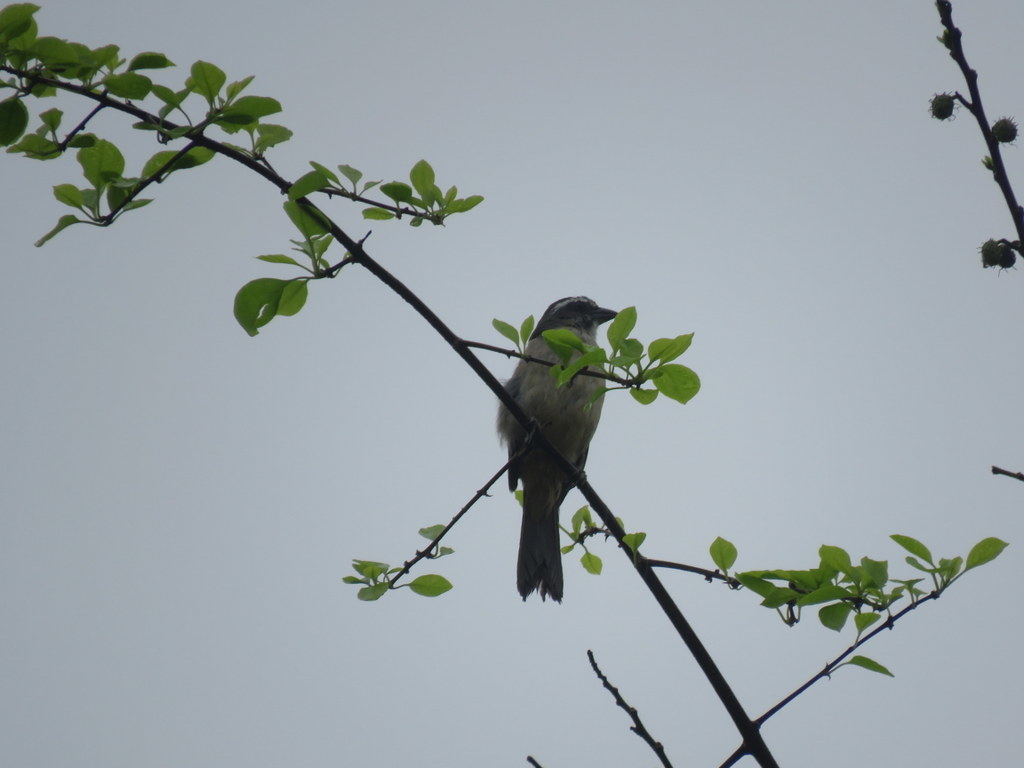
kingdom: Animalia
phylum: Chordata
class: Aves
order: Passeriformes
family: Thraupidae
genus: Saltator
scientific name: Saltator similis
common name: Green-winged saltator
